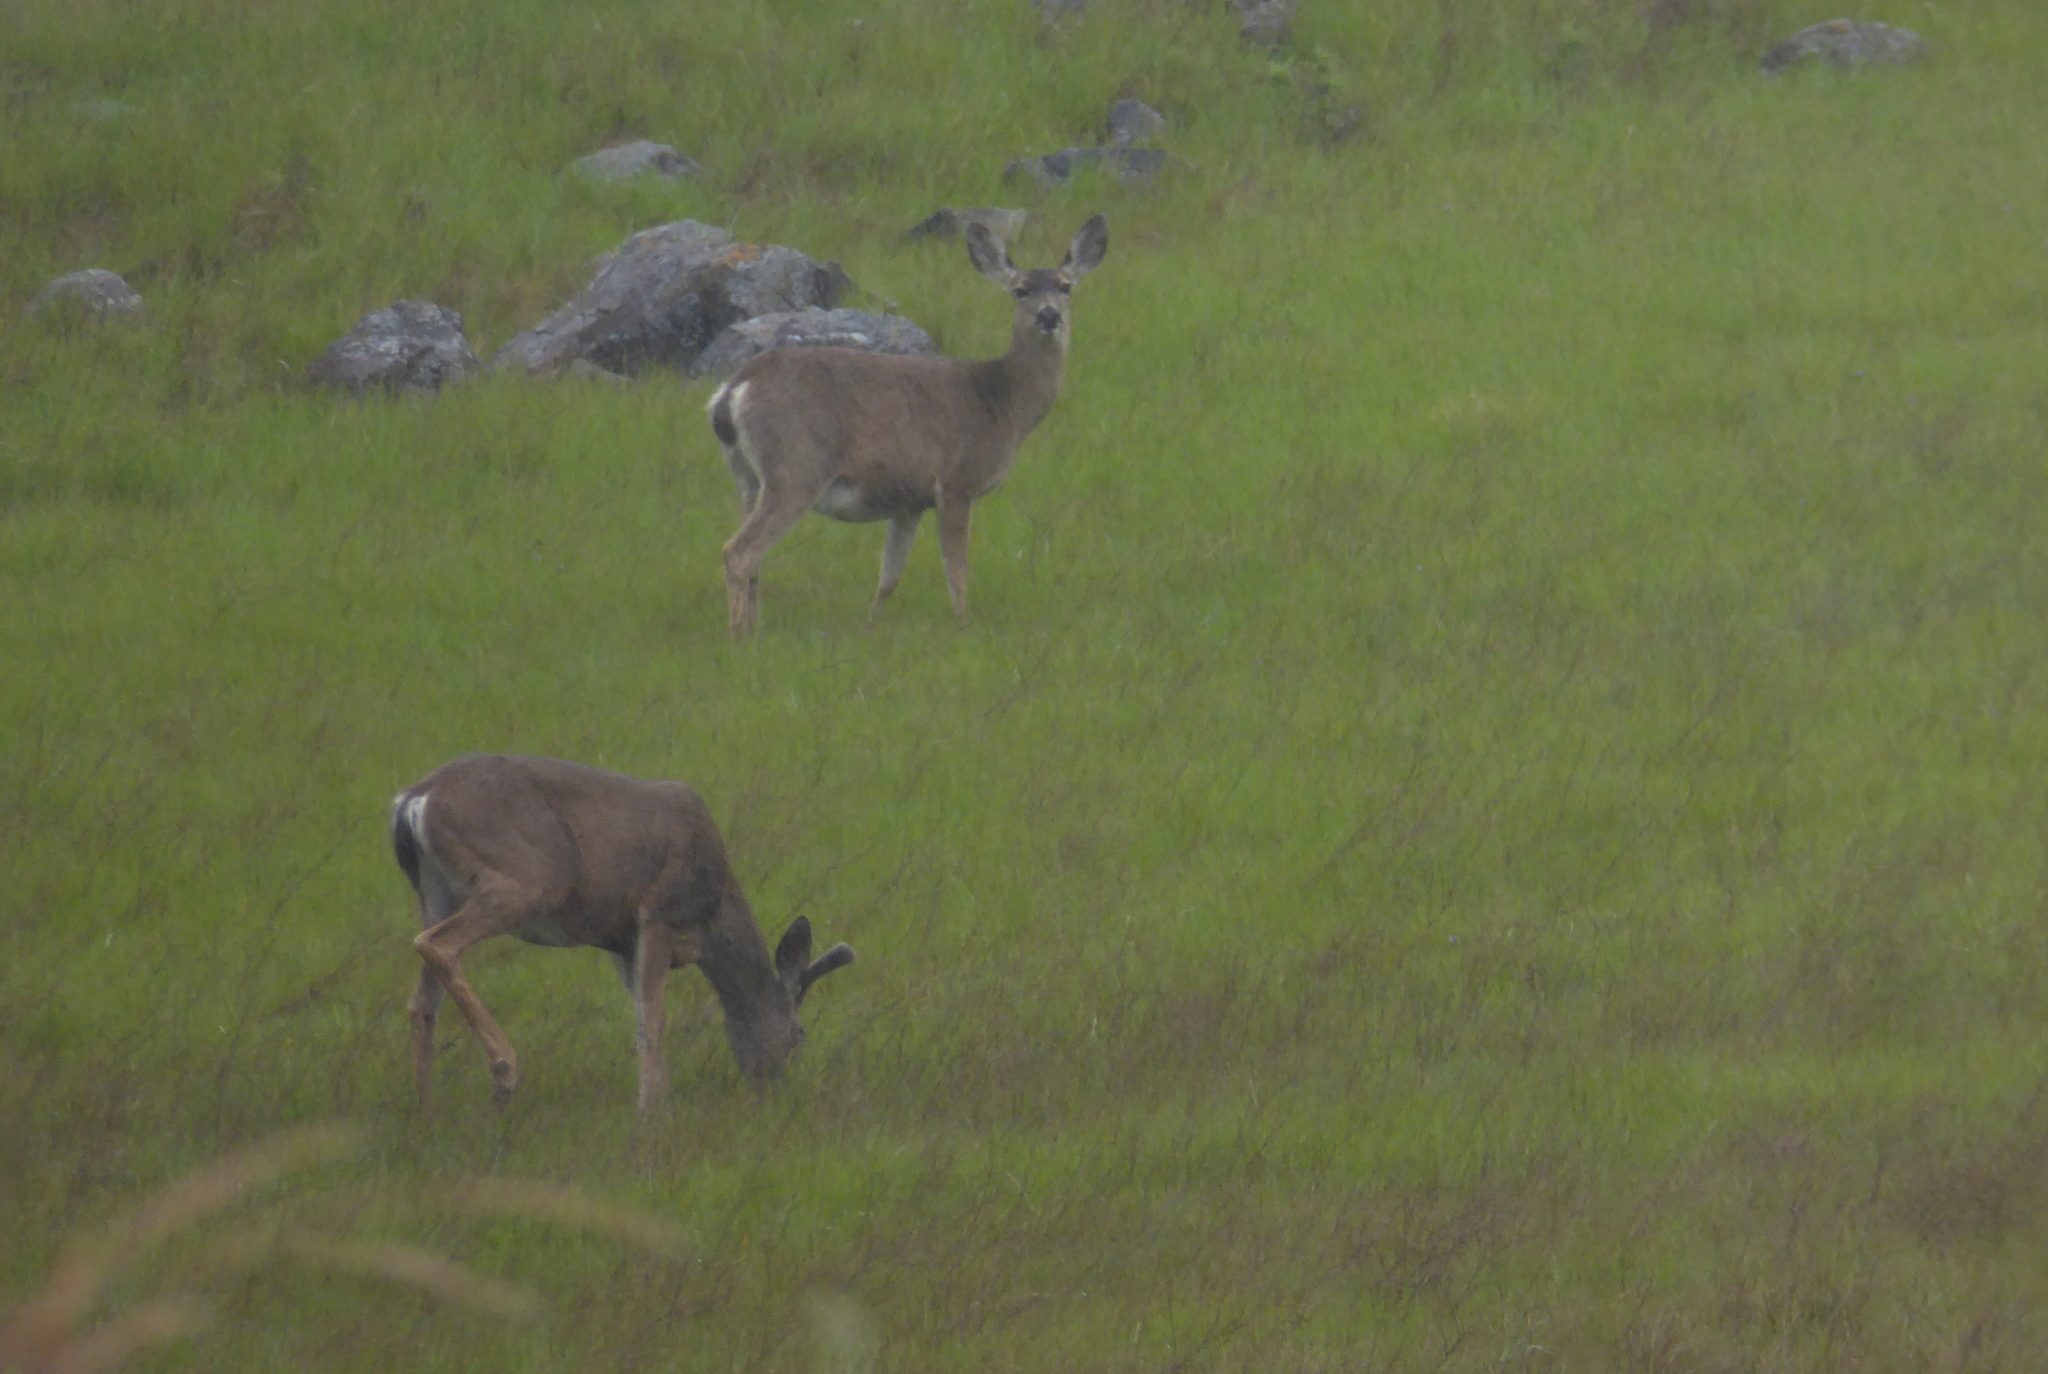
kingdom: Animalia
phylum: Chordata
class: Mammalia
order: Artiodactyla
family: Cervidae
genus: Odocoileus
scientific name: Odocoileus hemionus
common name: Mule deer
